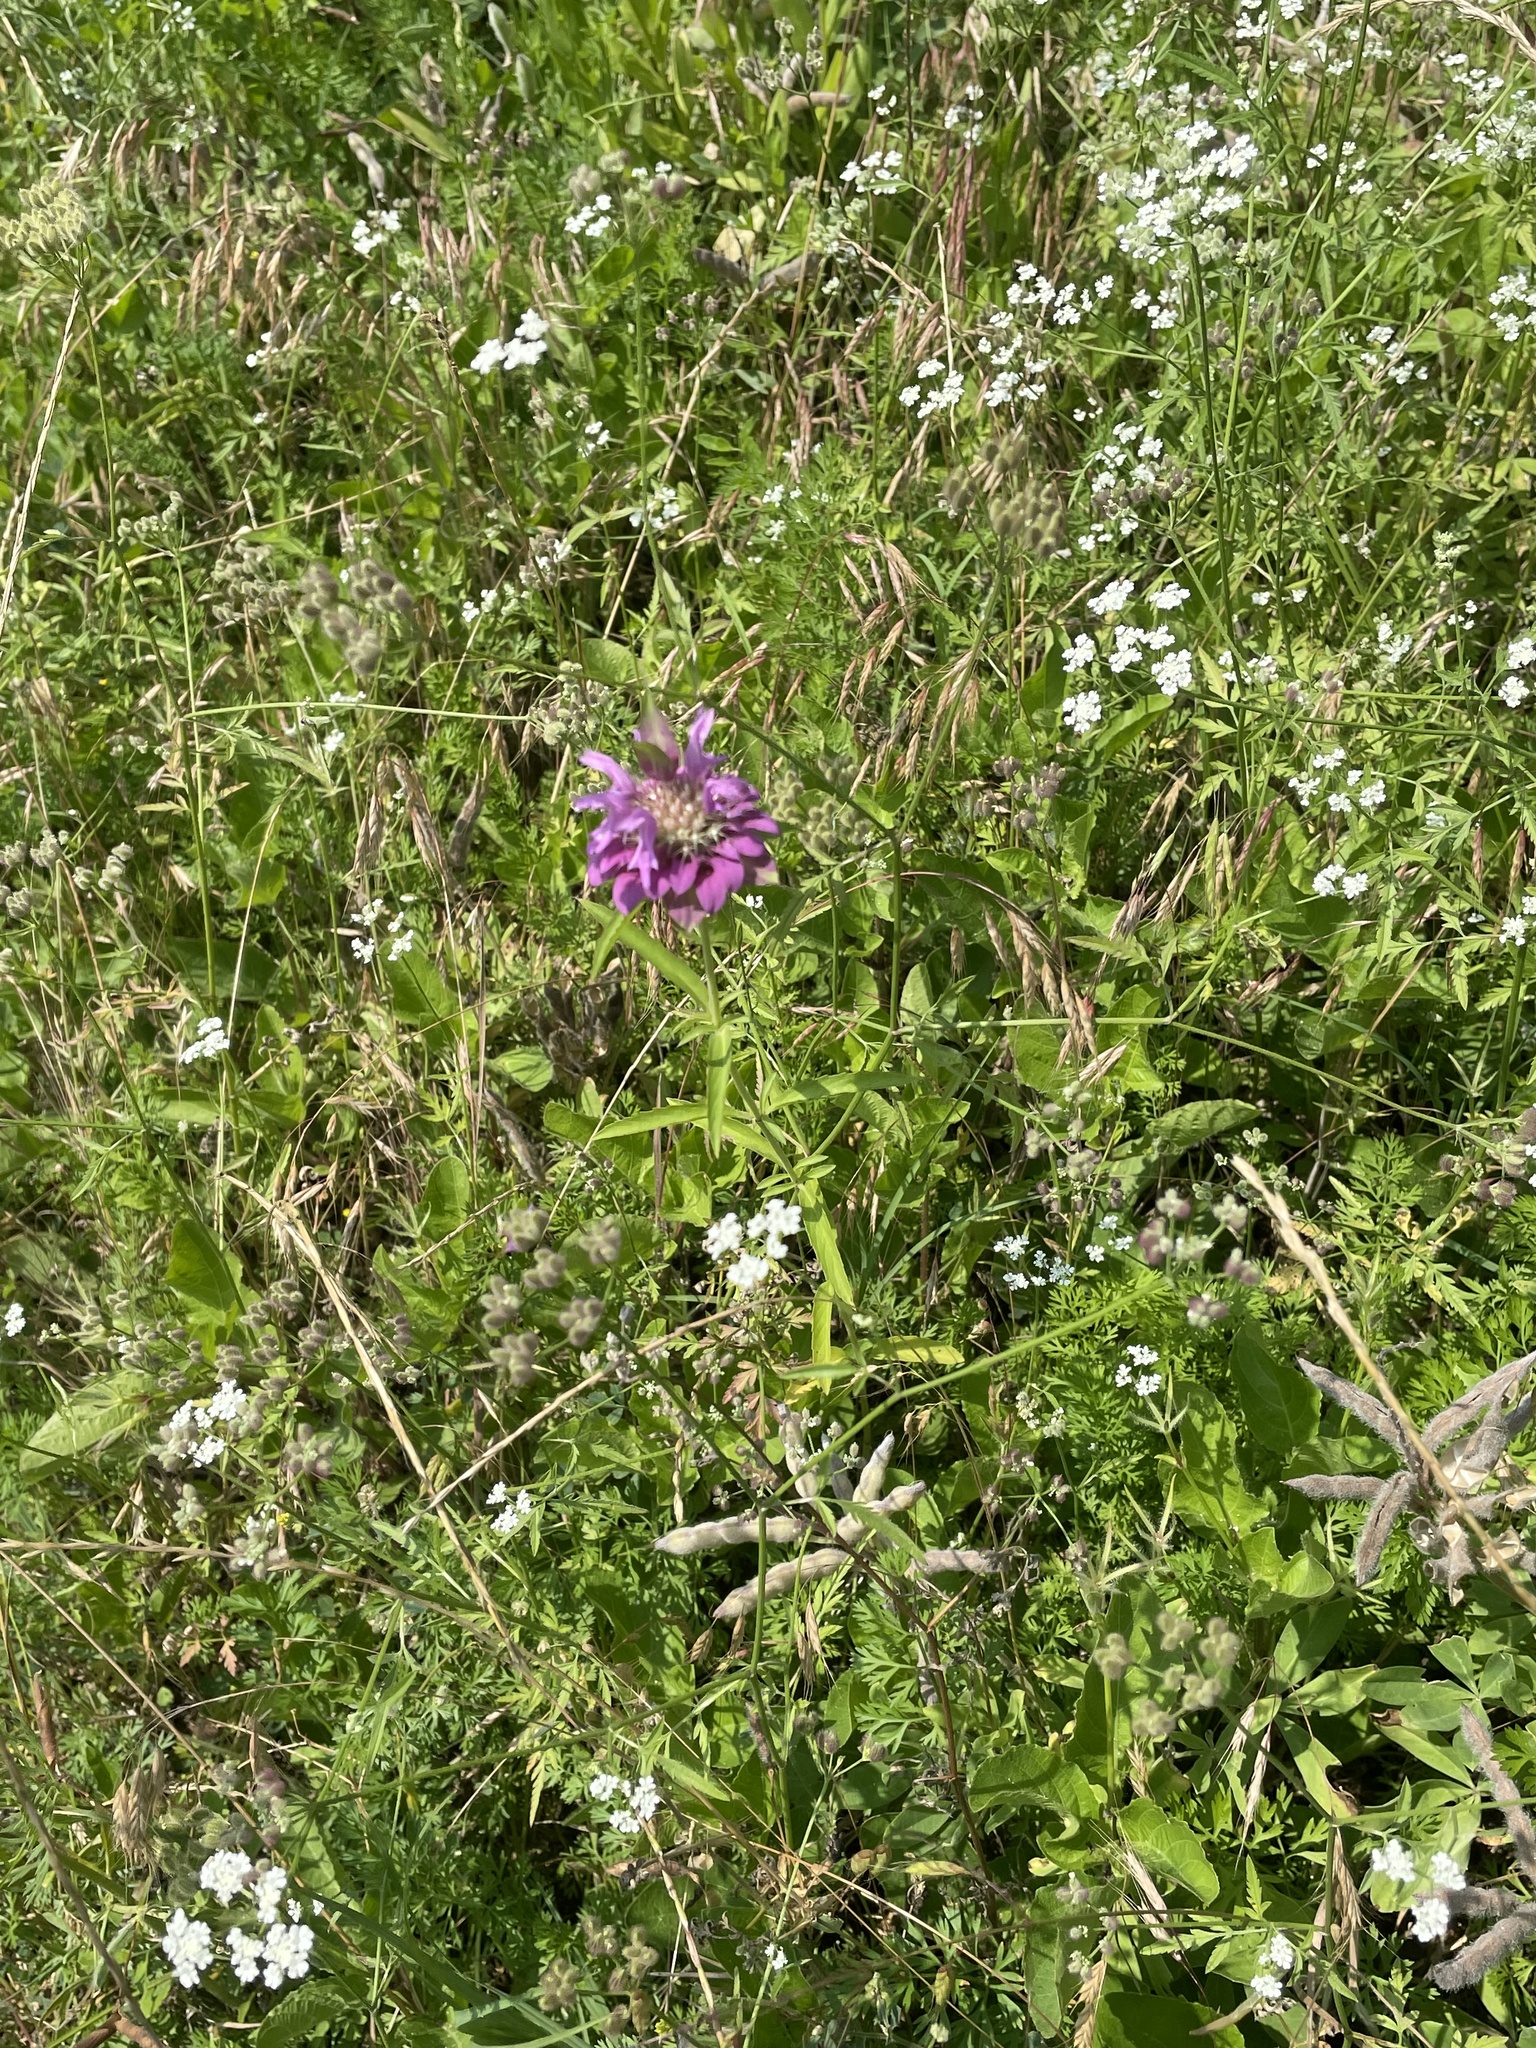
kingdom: Plantae
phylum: Tracheophyta
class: Magnoliopsida
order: Lamiales
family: Lamiaceae
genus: Monarda
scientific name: Monarda citriodora
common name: Lemon beebalm
